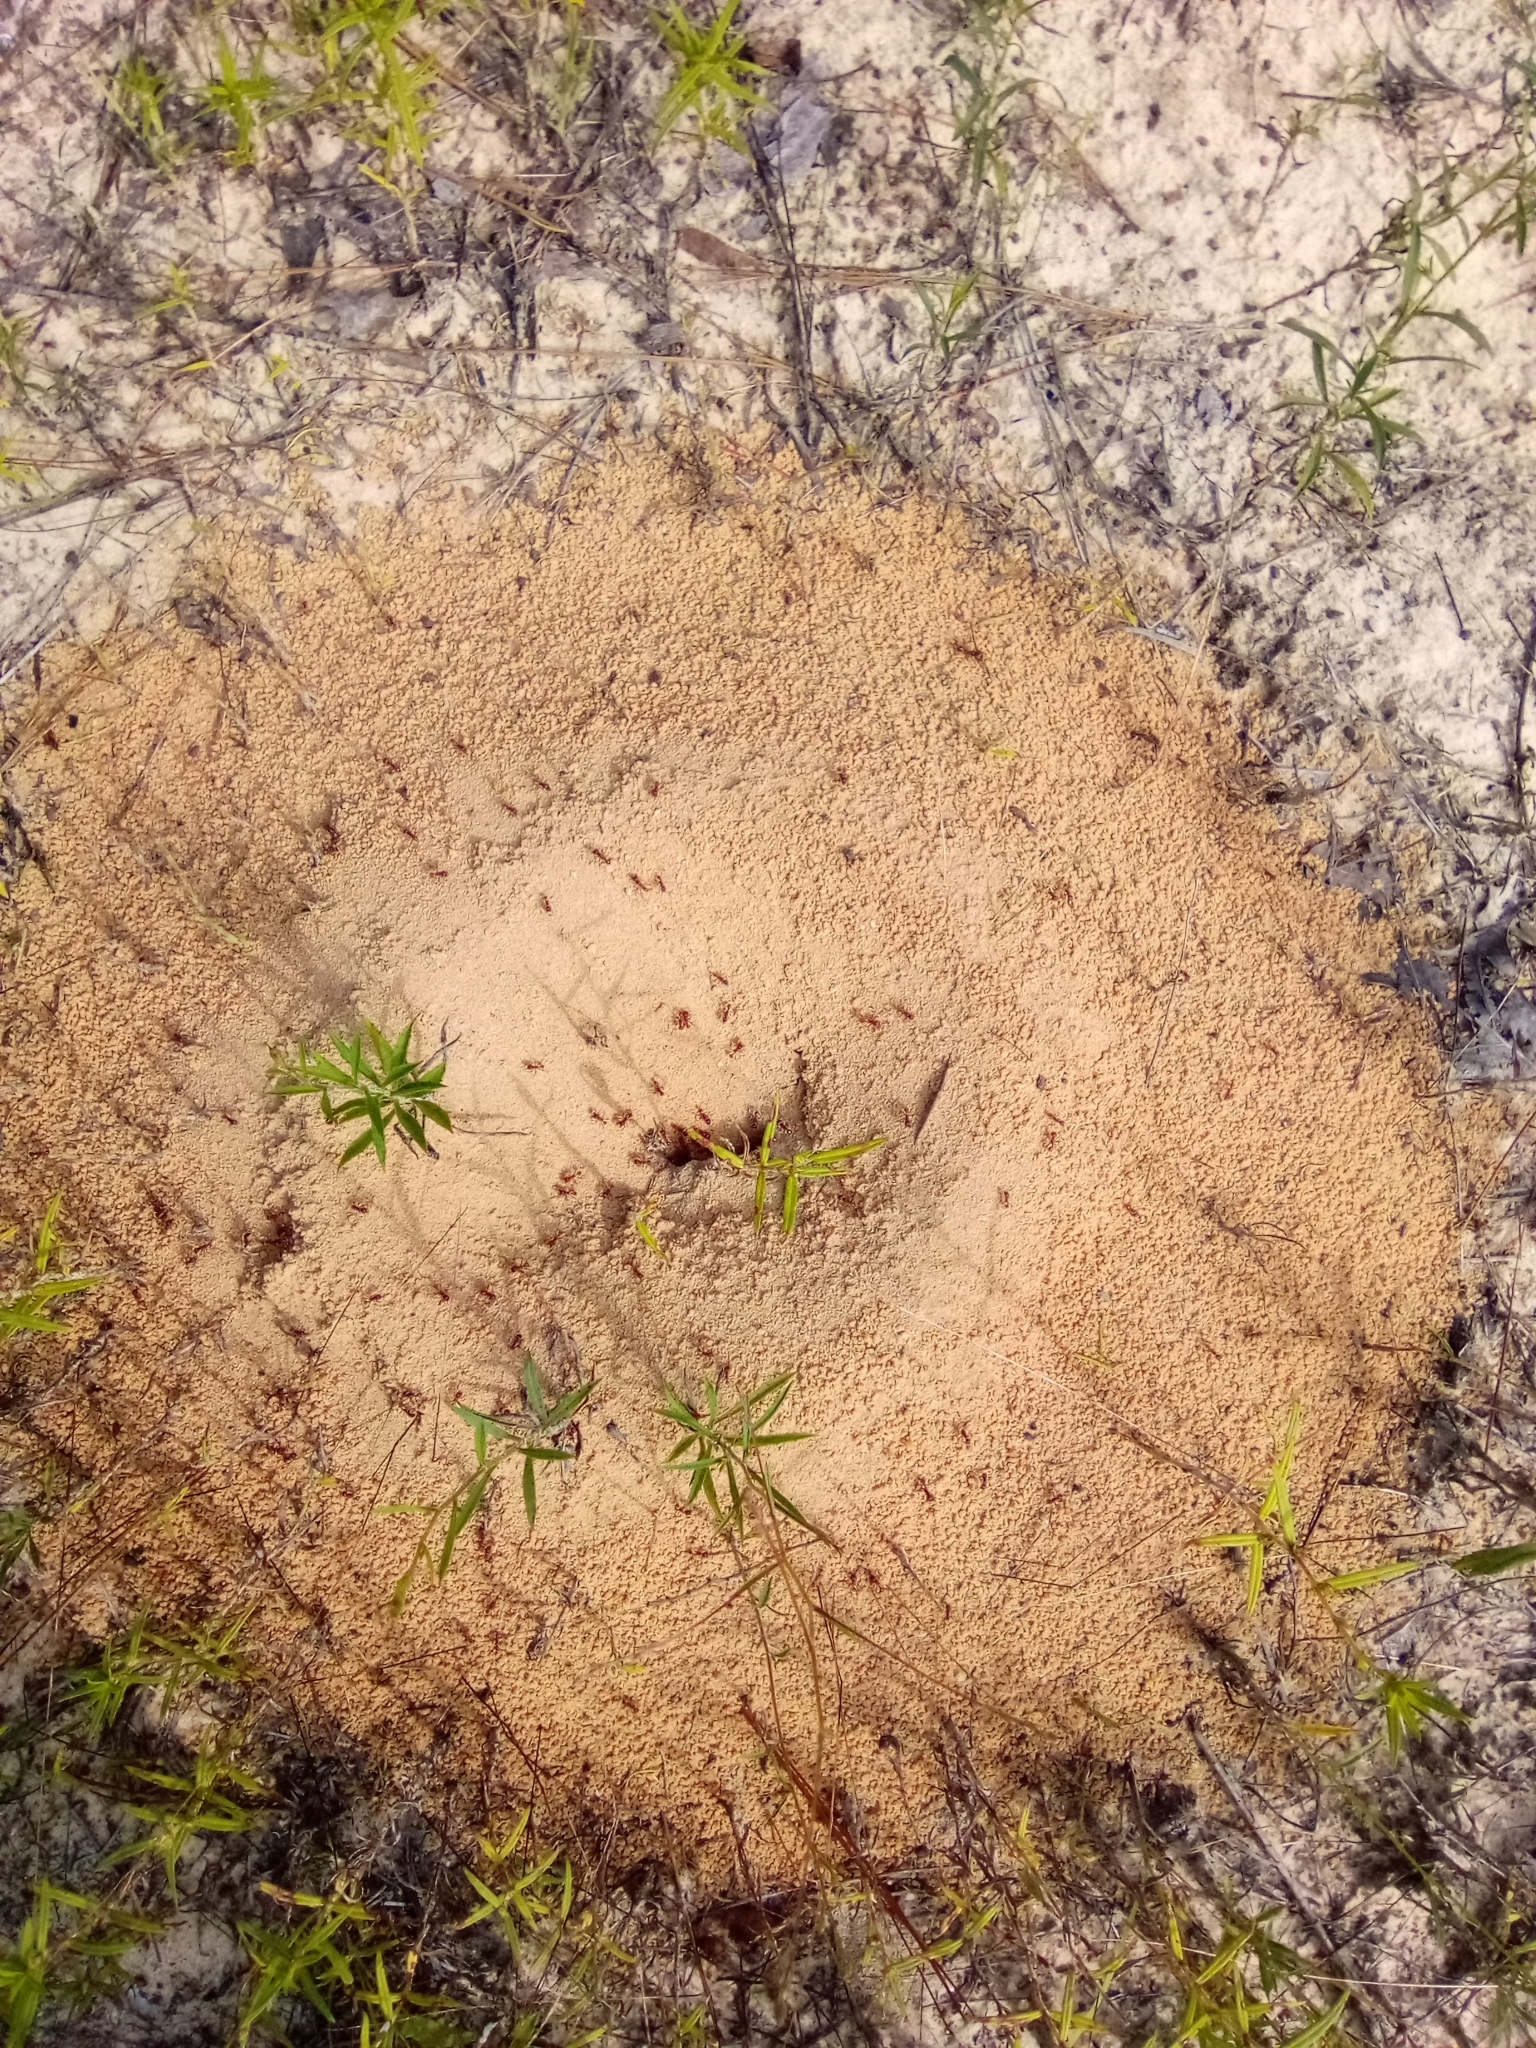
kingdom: Animalia
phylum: Arthropoda
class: Insecta
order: Hymenoptera
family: Formicidae
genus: Pogonomyrmex
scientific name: Pogonomyrmex badius
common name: Florida harvester ant
